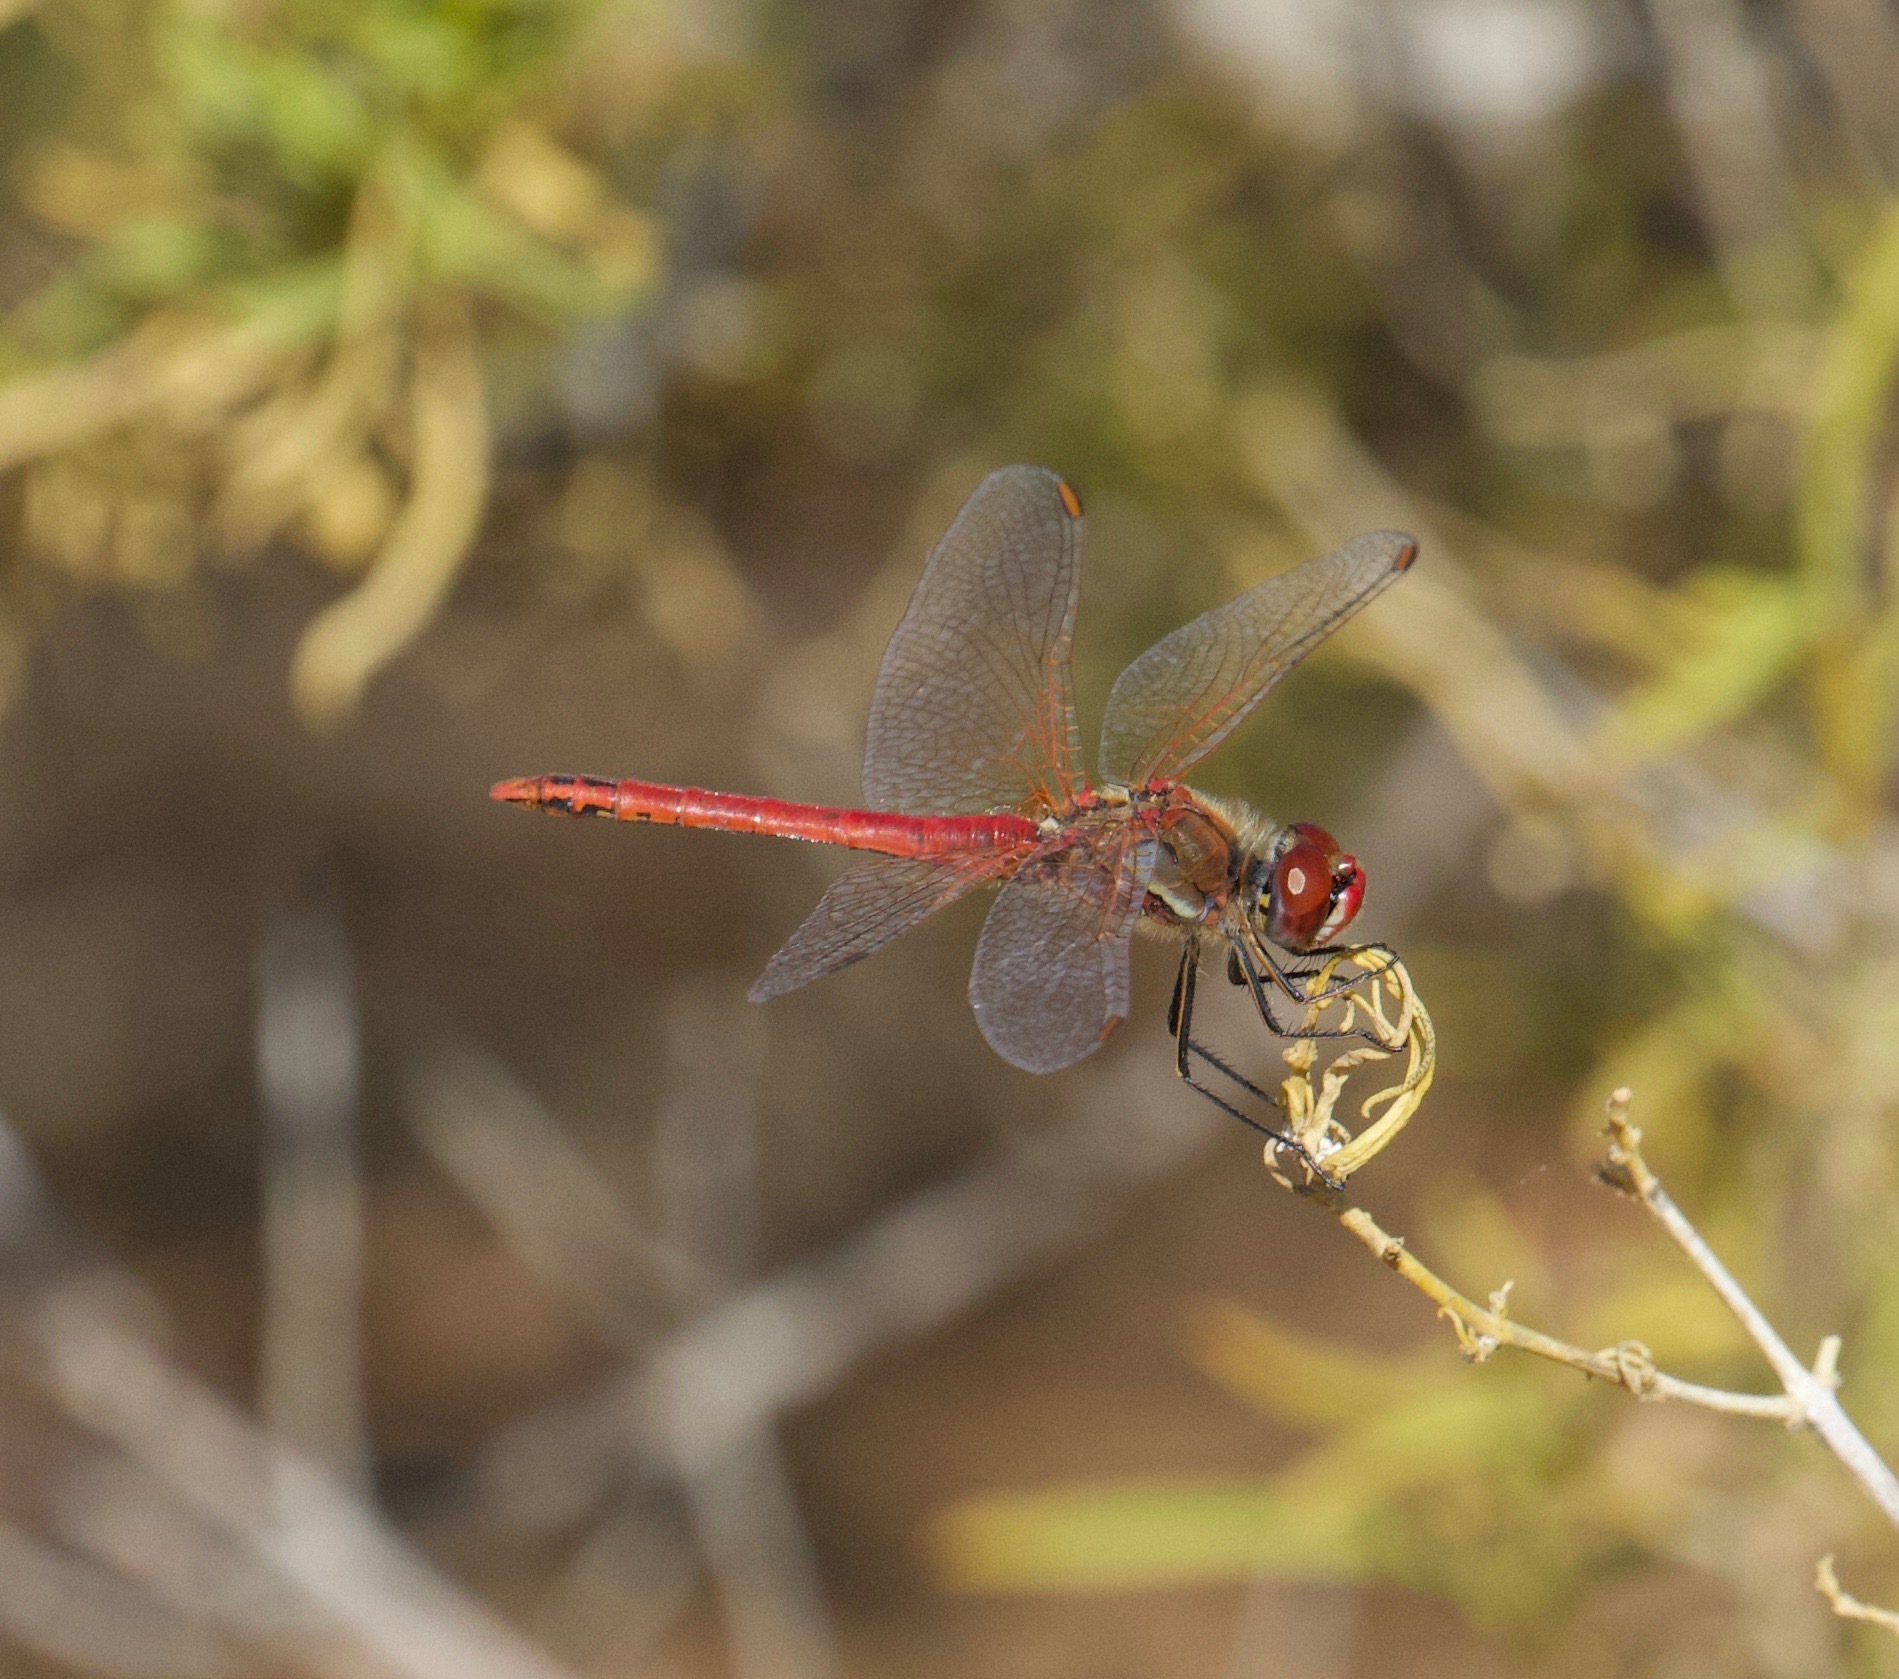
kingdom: Animalia
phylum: Arthropoda
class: Insecta
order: Odonata
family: Libellulidae
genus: Sympetrum
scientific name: Sympetrum fonscolombii
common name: Red-veined darter
